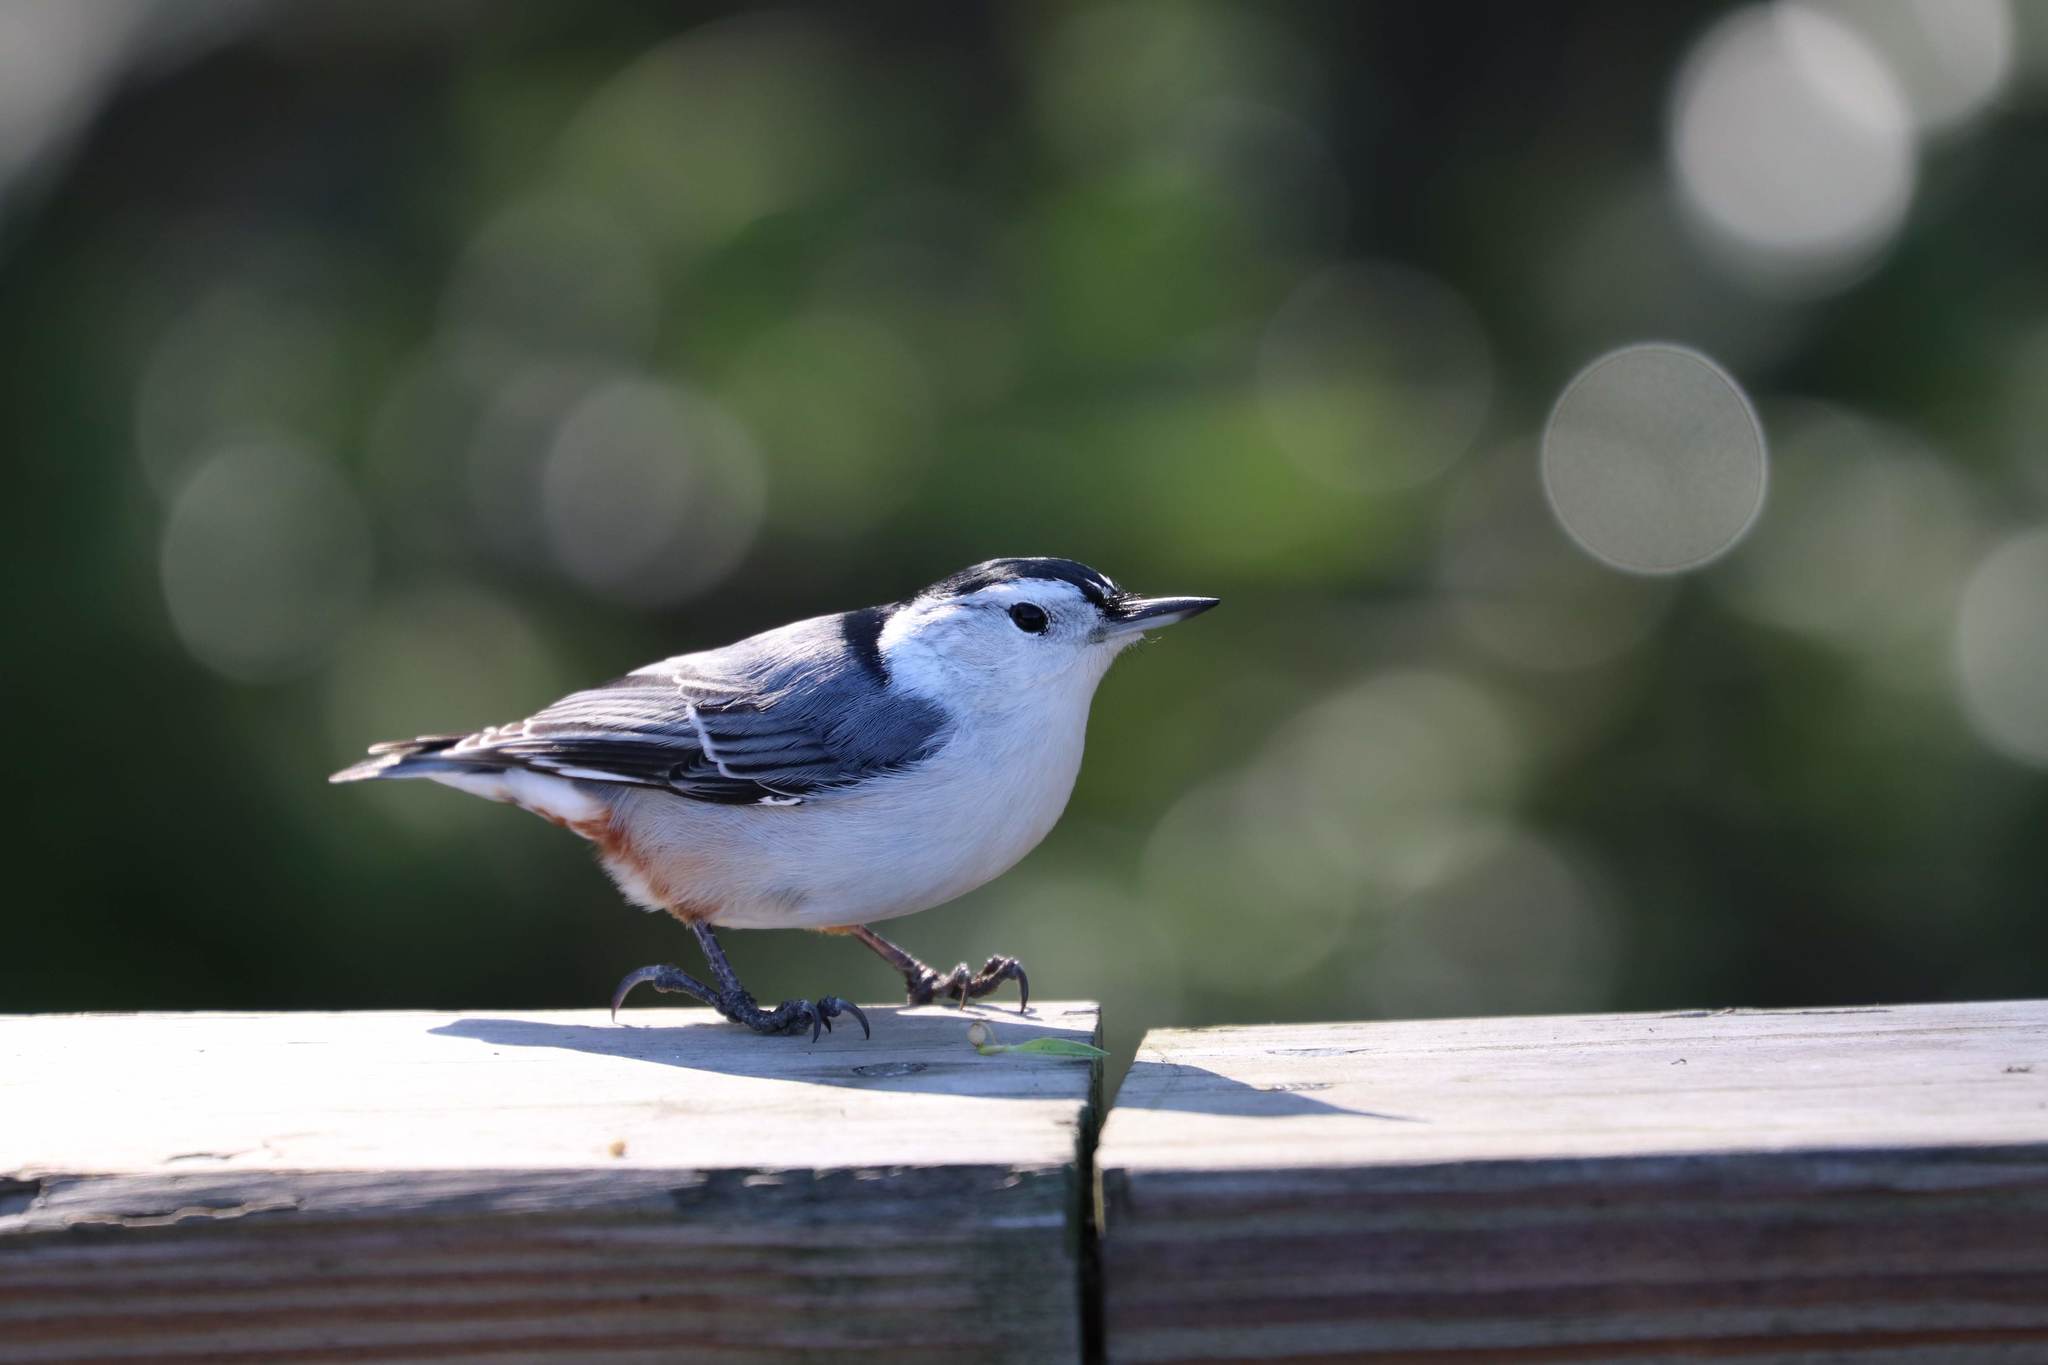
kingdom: Animalia
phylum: Chordata
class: Aves
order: Passeriformes
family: Sittidae
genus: Sitta
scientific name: Sitta carolinensis
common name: White-breasted nuthatch
